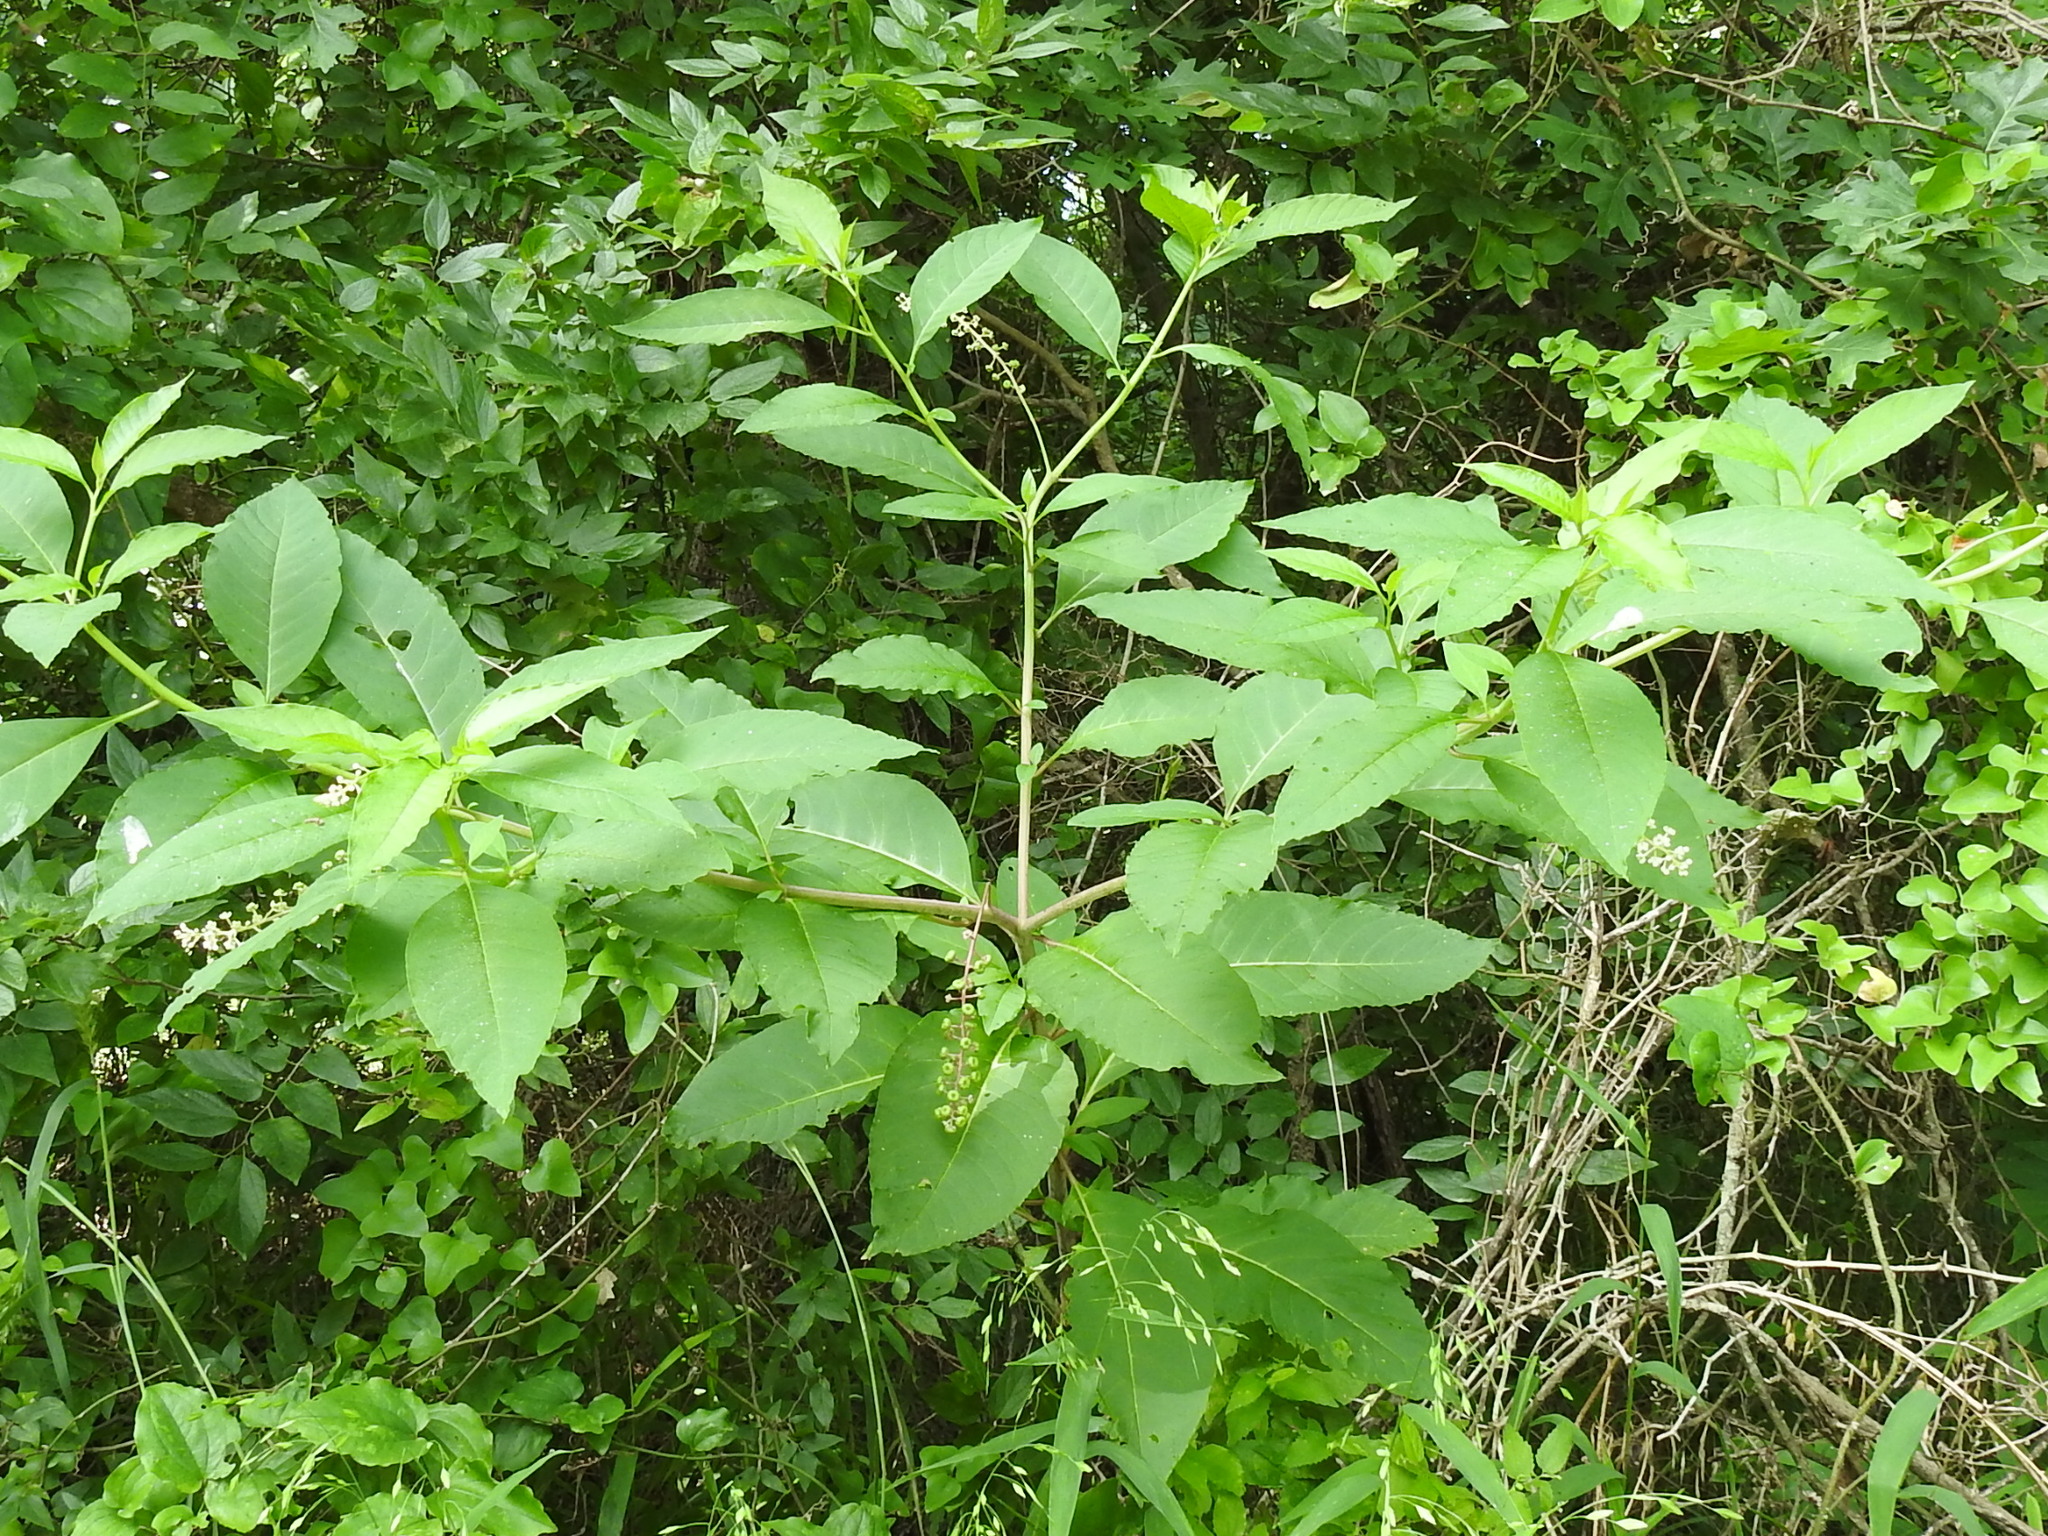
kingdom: Plantae
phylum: Tracheophyta
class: Magnoliopsida
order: Caryophyllales
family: Phytolaccaceae
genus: Phytolacca
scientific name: Phytolacca americana
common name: American pokeweed
